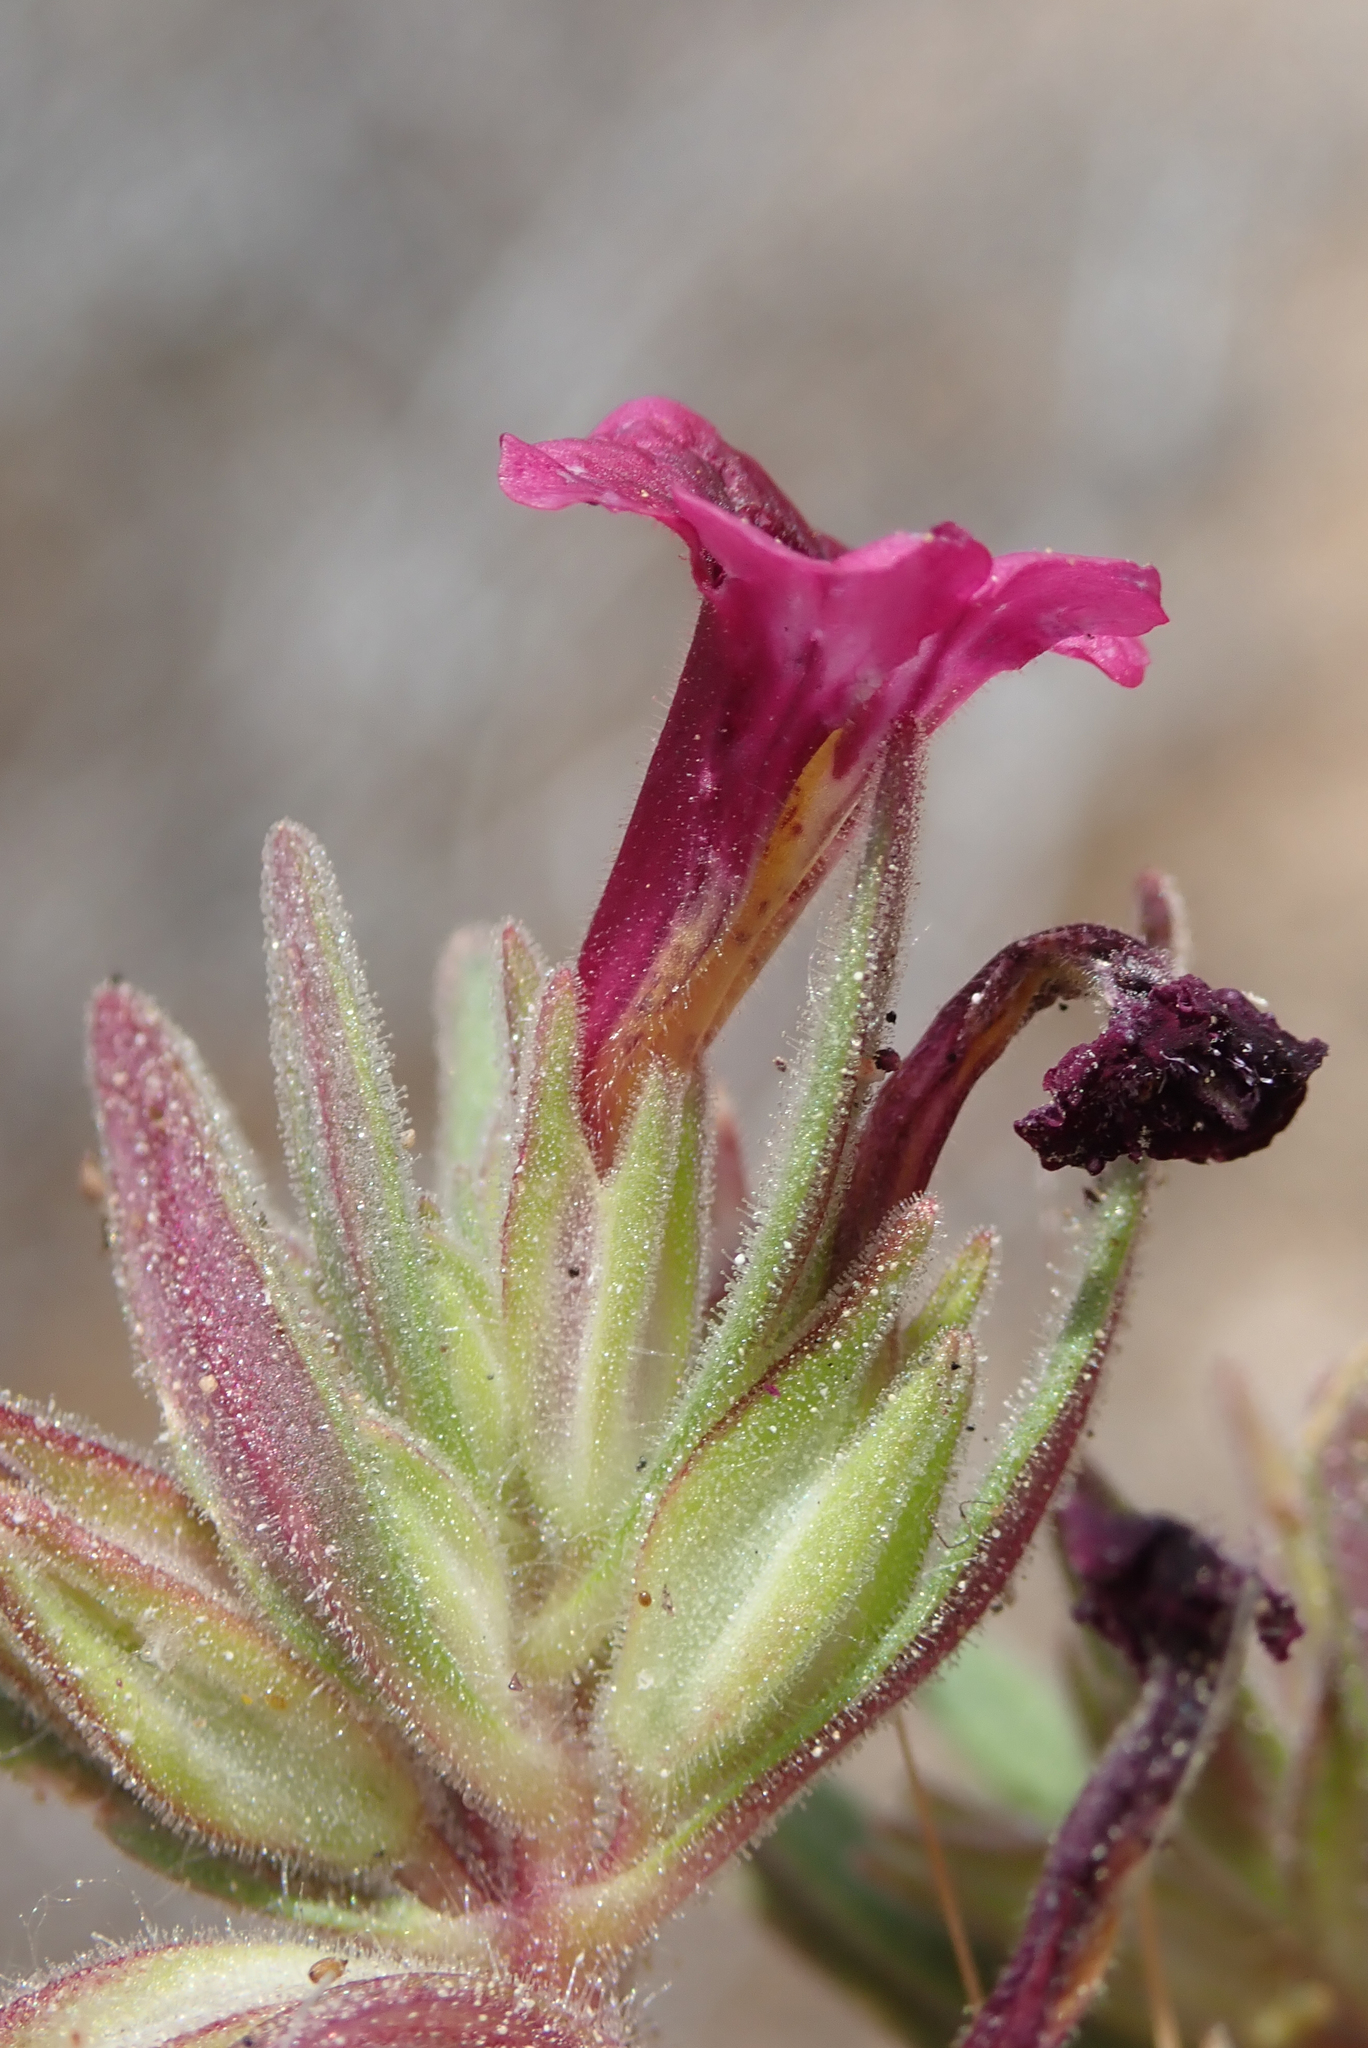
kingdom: Plantae
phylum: Tracheophyta
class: Magnoliopsida
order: Lamiales
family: Phrymaceae
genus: Diplacus
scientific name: Diplacus mephiticus
